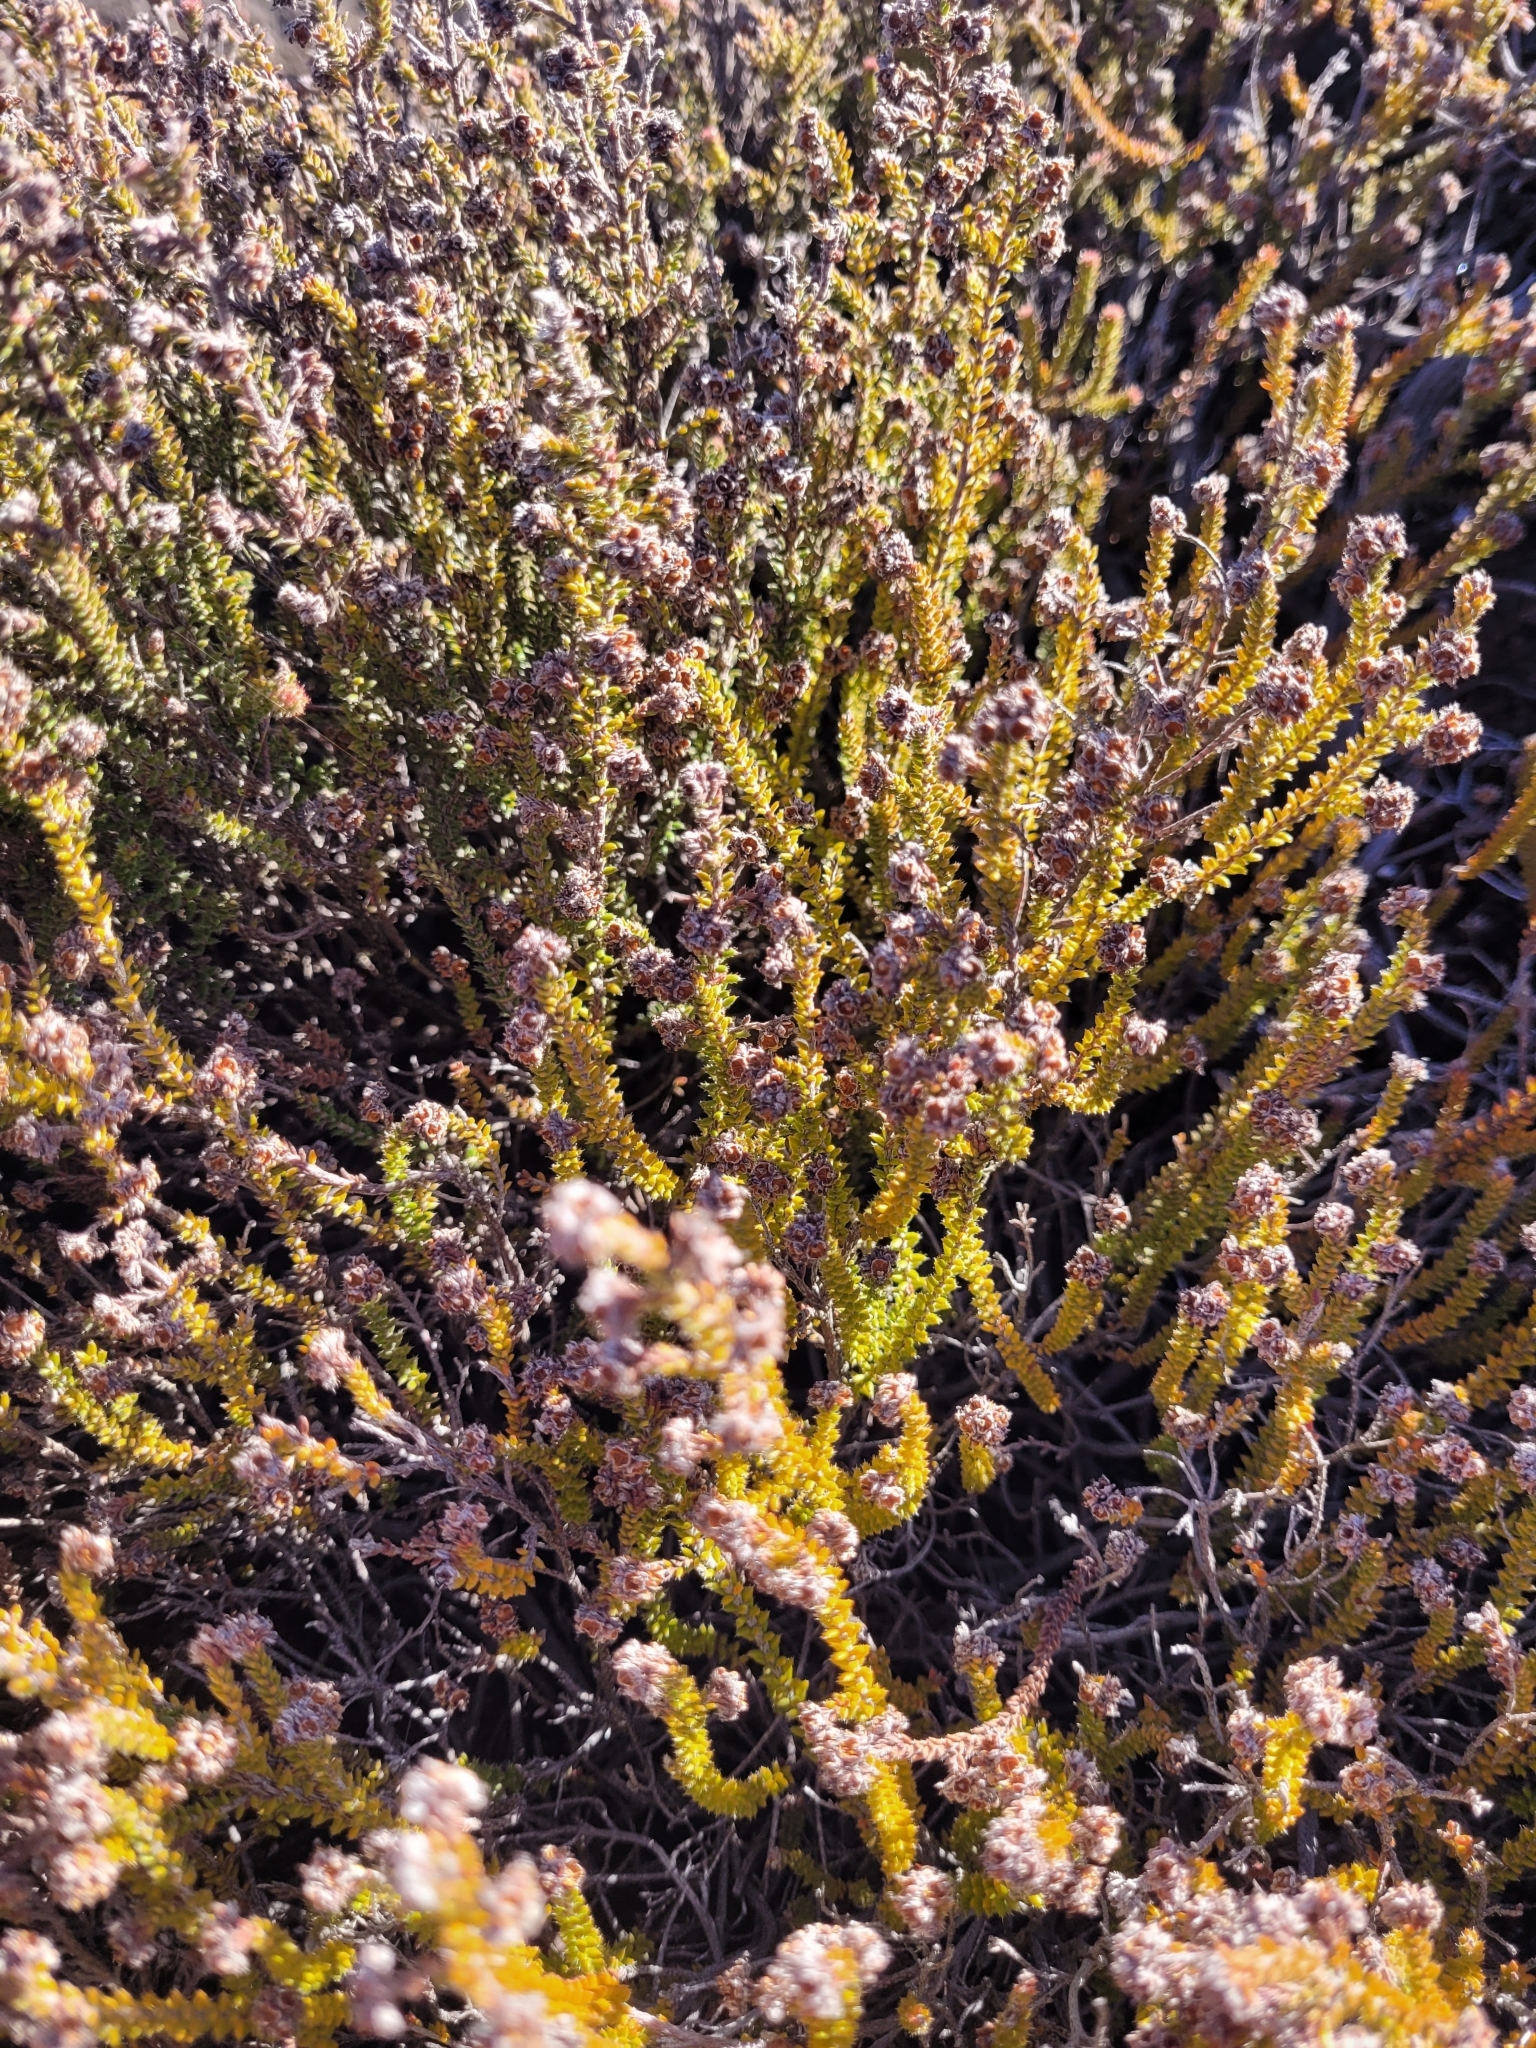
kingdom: Plantae
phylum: Tracheophyta
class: Magnoliopsida
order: Ericales
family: Ericaceae
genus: Erica
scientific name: Erica galioides
